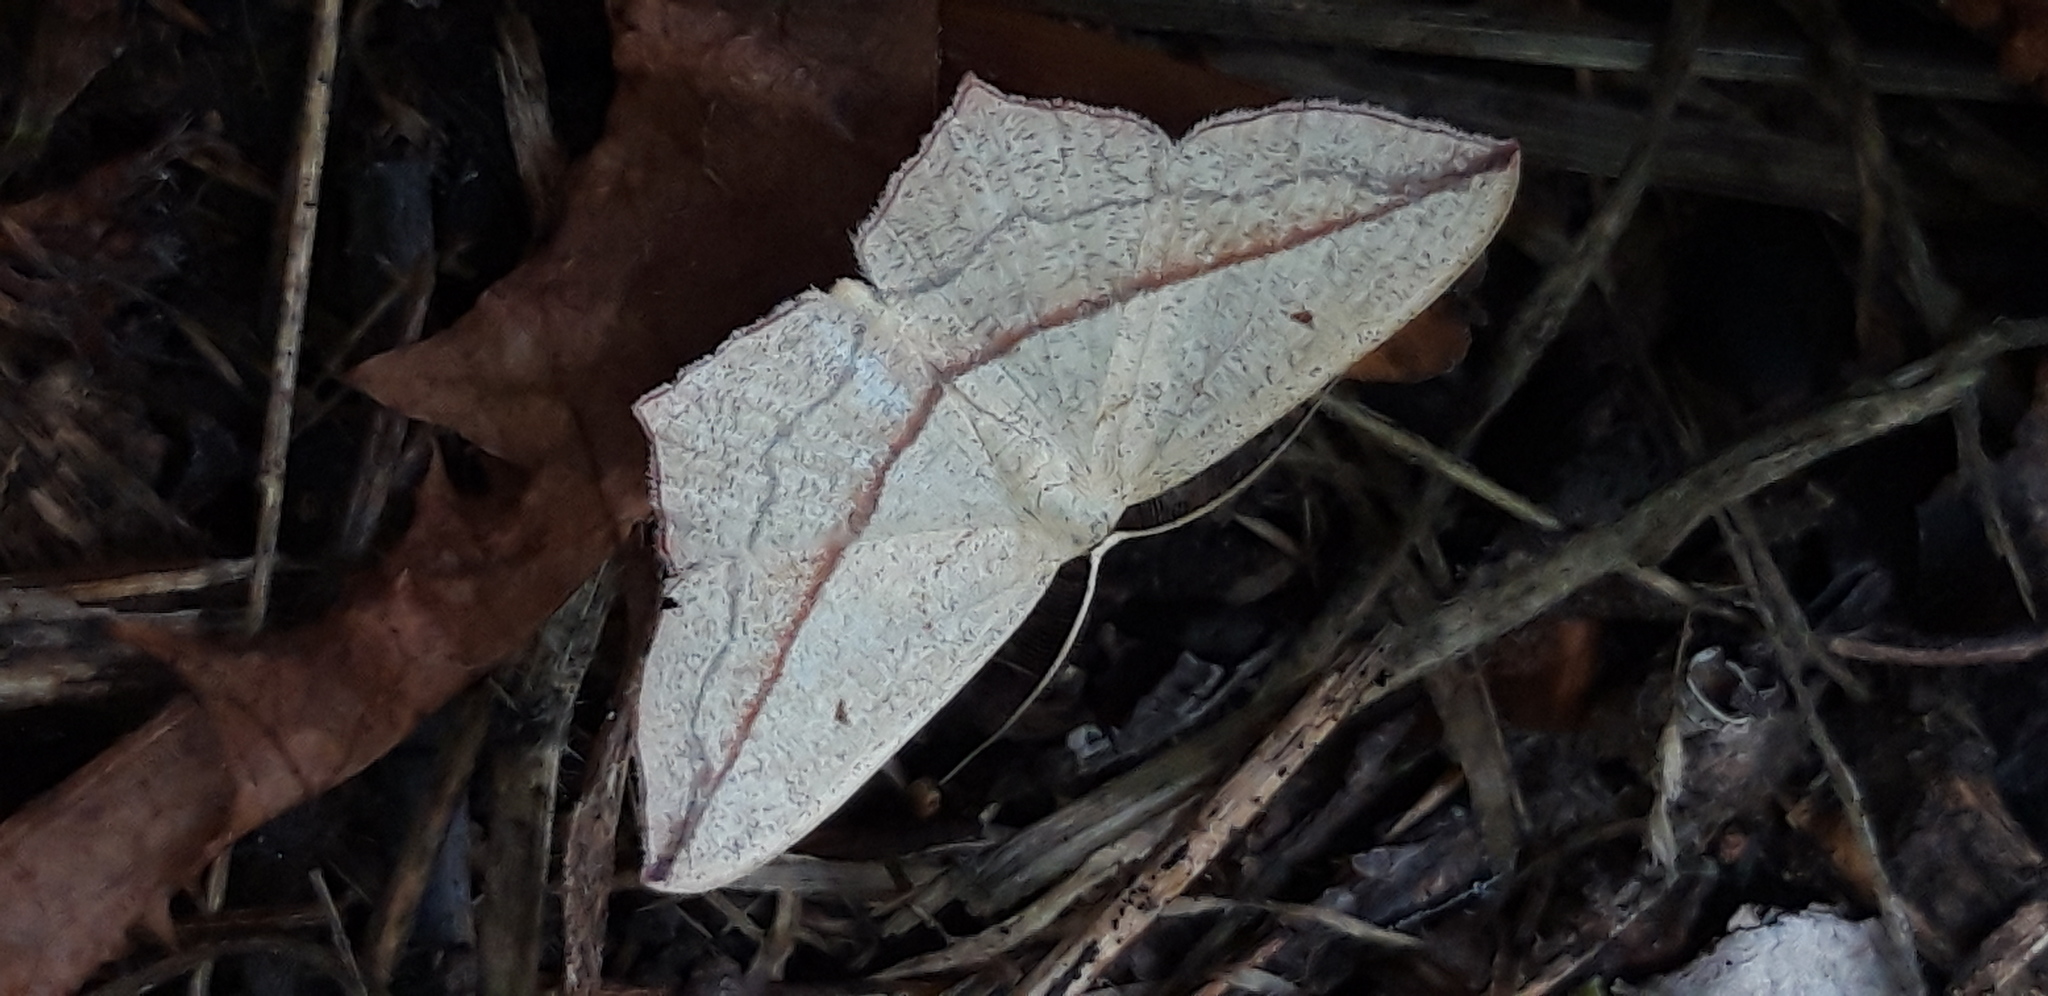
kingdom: Animalia
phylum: Arthropoda
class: Insecta
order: Lepidoptera
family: Geometridae
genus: Timandra
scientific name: Timandra comae
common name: Blood-vein
